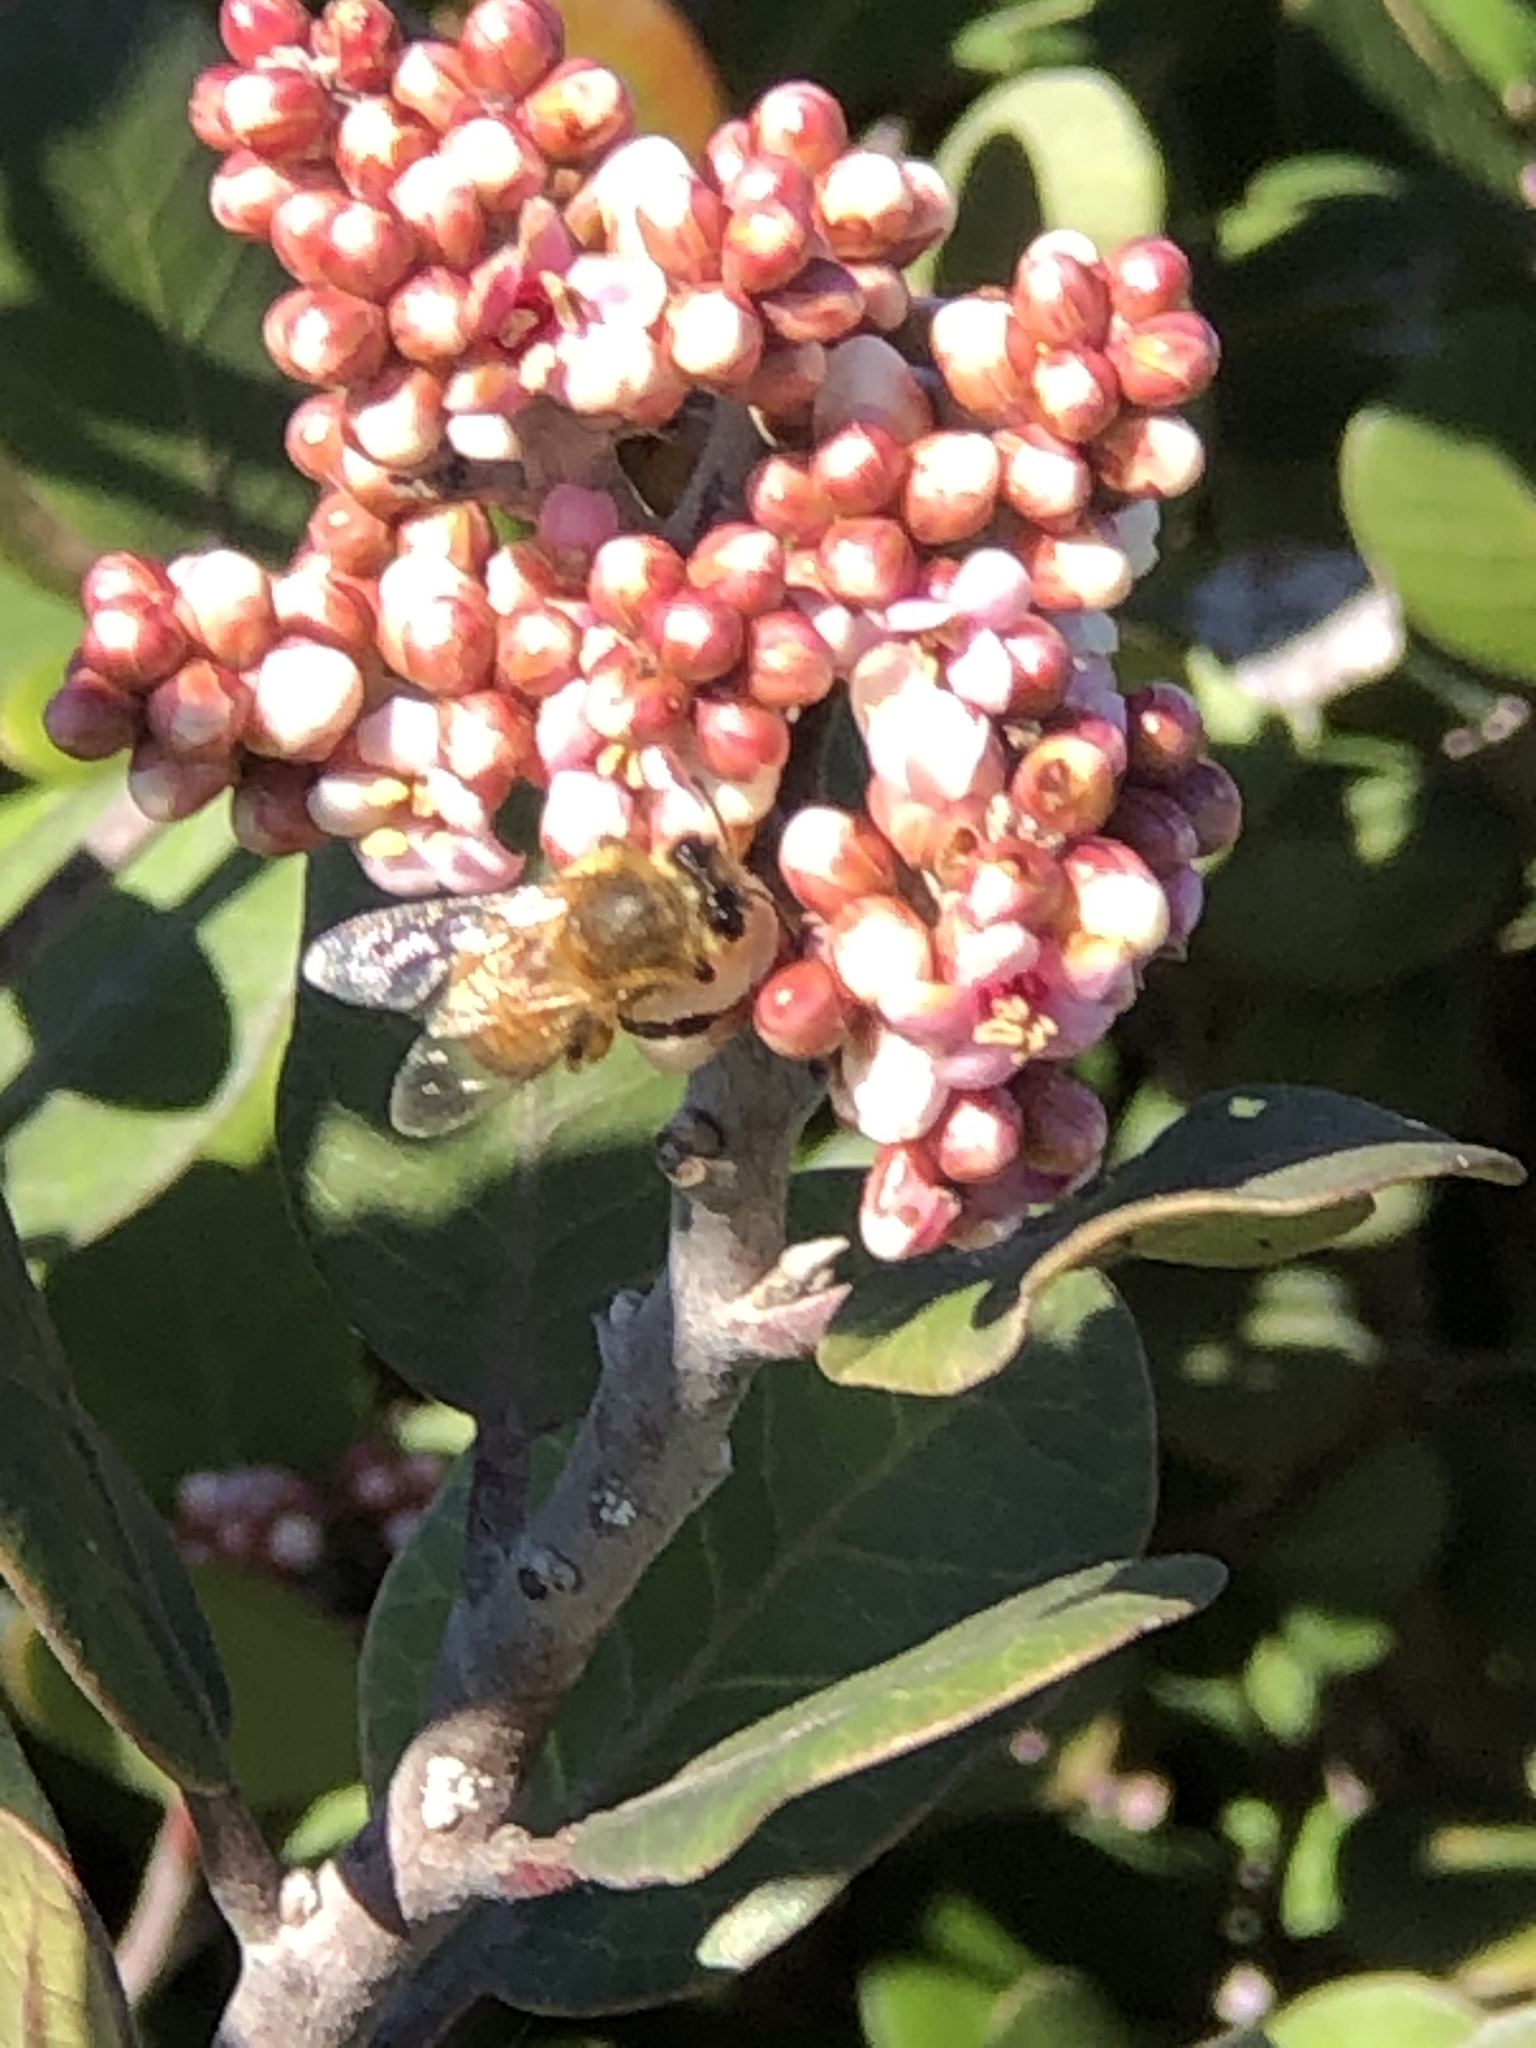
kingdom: Animalia
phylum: Arthropoda
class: Insecta
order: Hymenoptera
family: Apidae
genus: Apis
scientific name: Apis mellifera
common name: Honey bee
